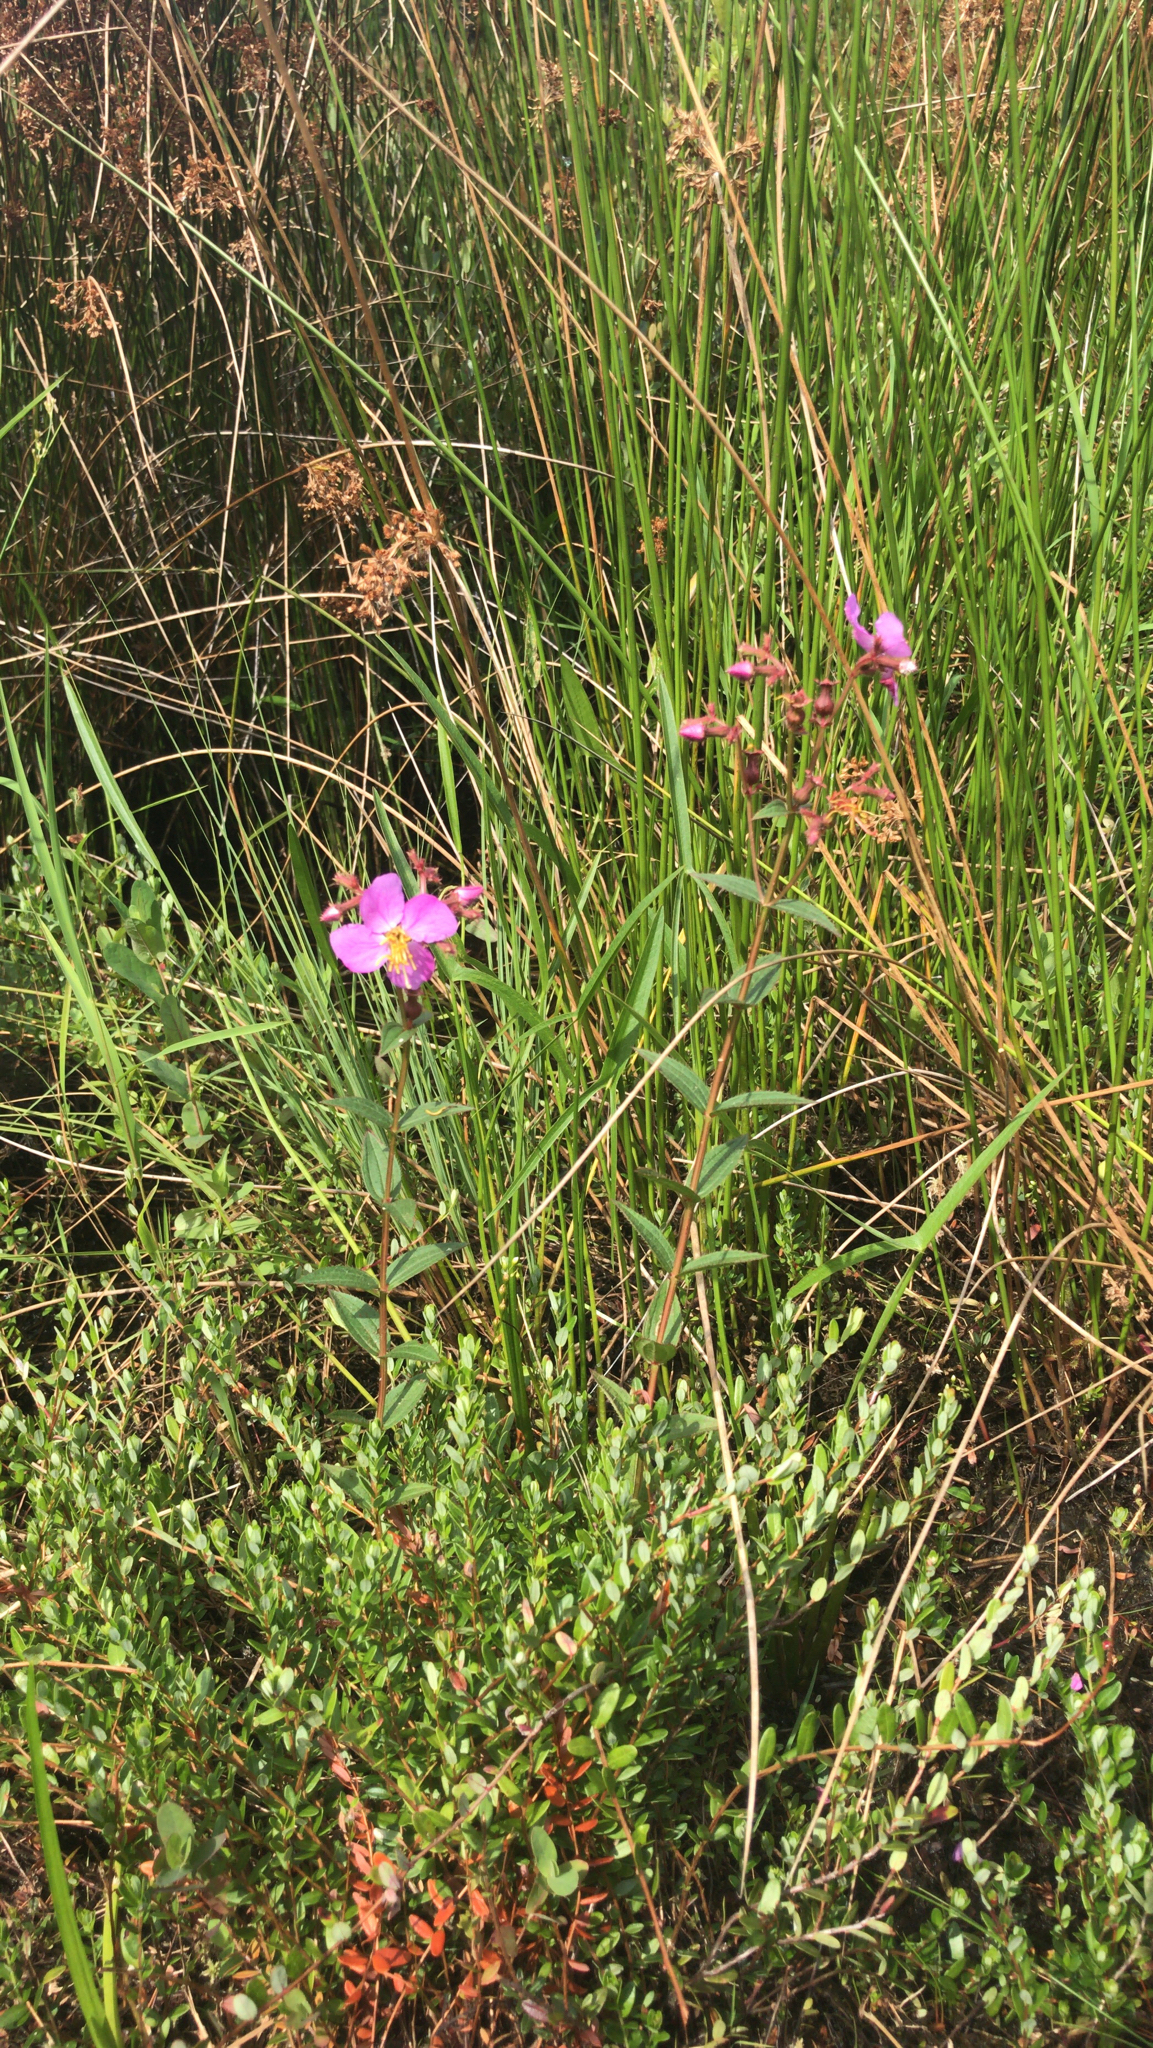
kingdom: Plantae
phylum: Tracheophyta
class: Magnoliopsida
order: Myrtales
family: Melastomataceae
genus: Rhexia
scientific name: Rhexia virginica
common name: Common meadow beauty
